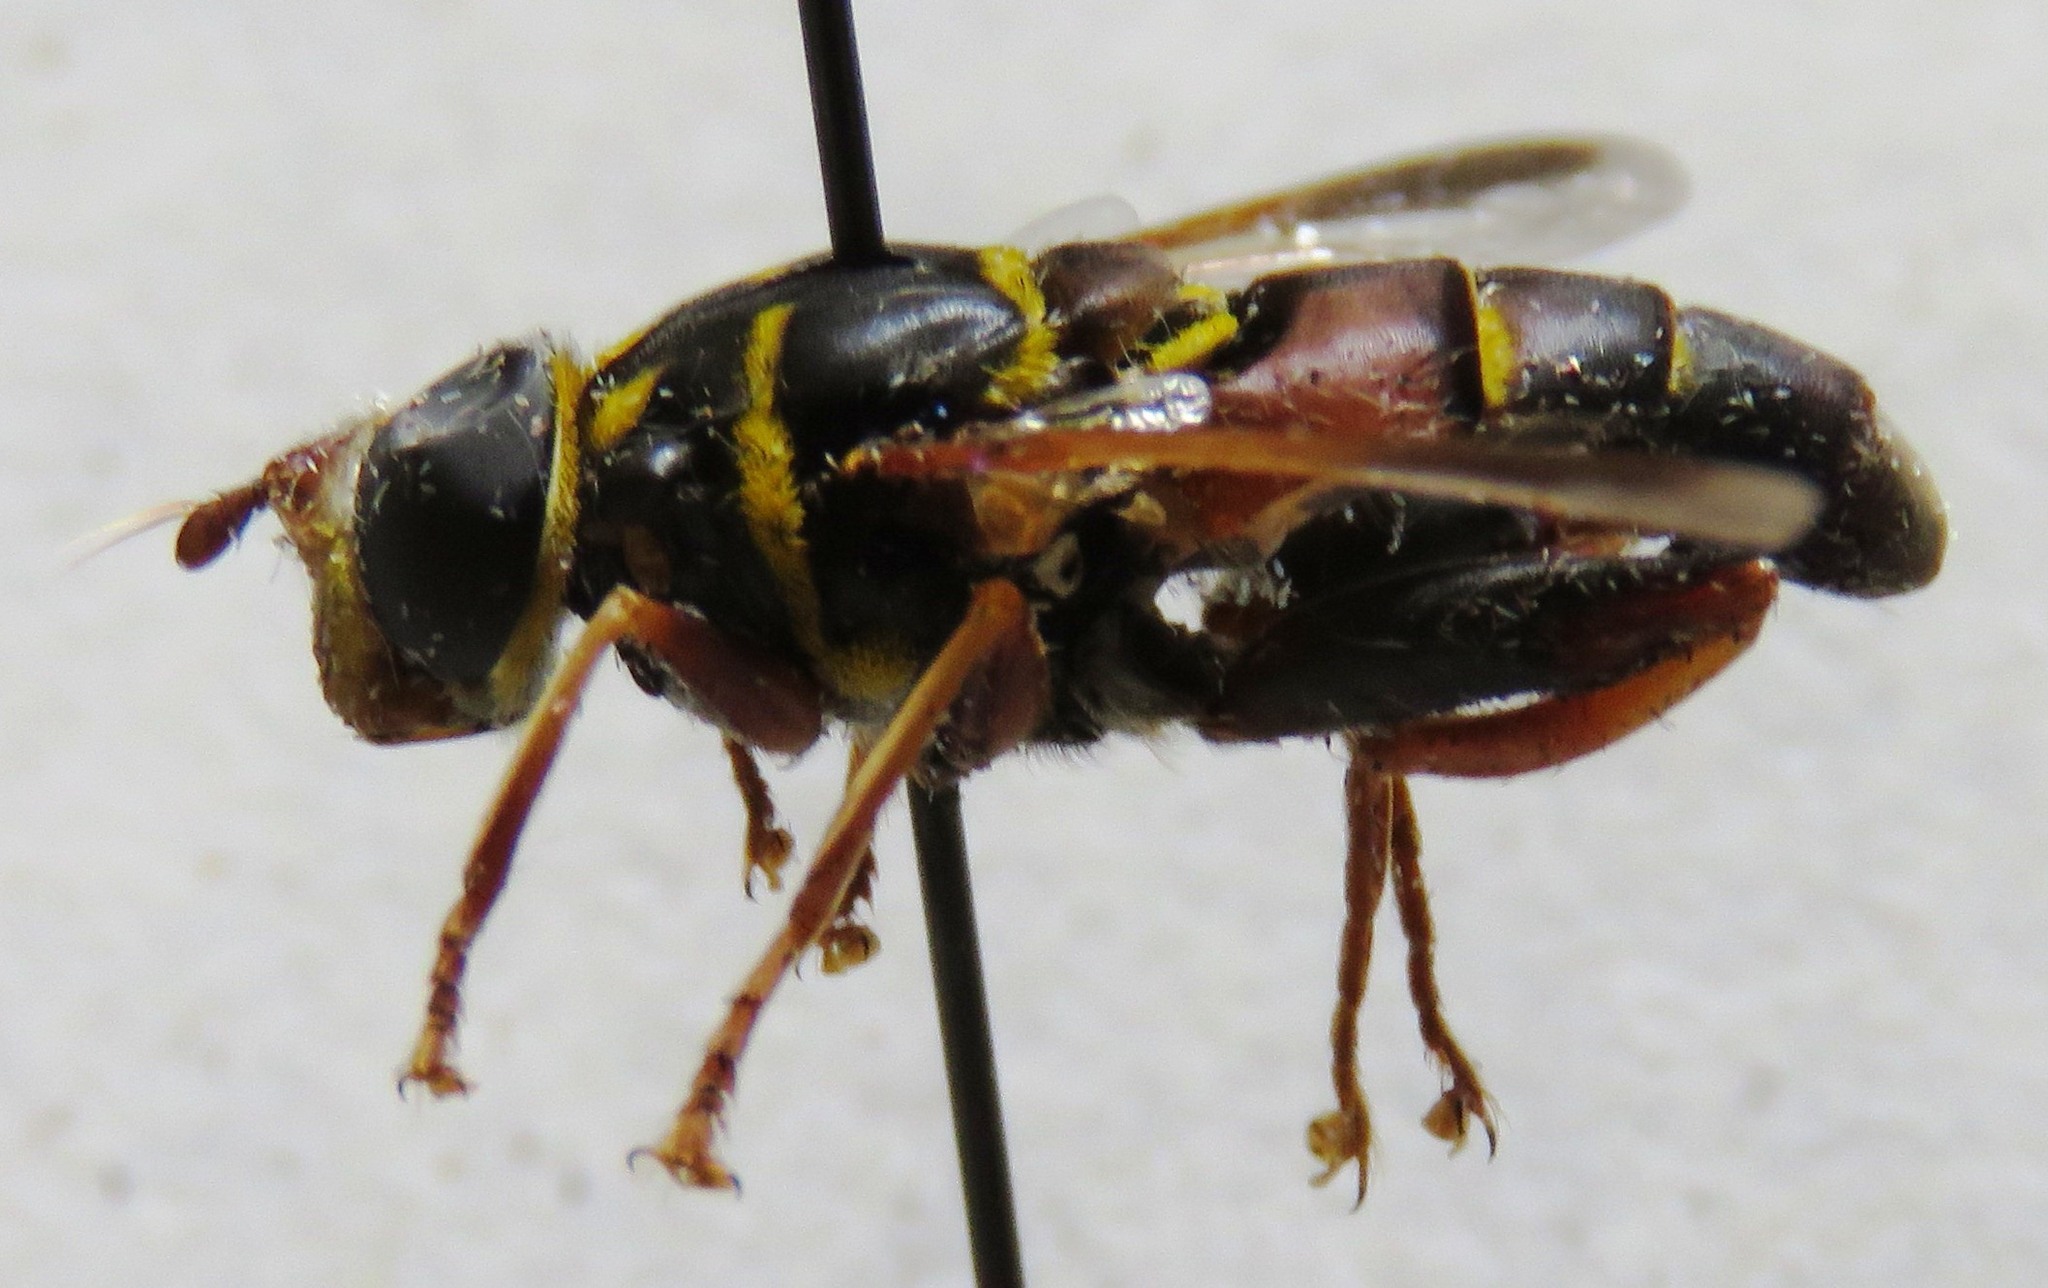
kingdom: Animalia
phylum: Arthropoda
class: Insecta
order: Diptera
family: Syrphidae
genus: Meromacrus
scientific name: Meromacrus gloriosus
